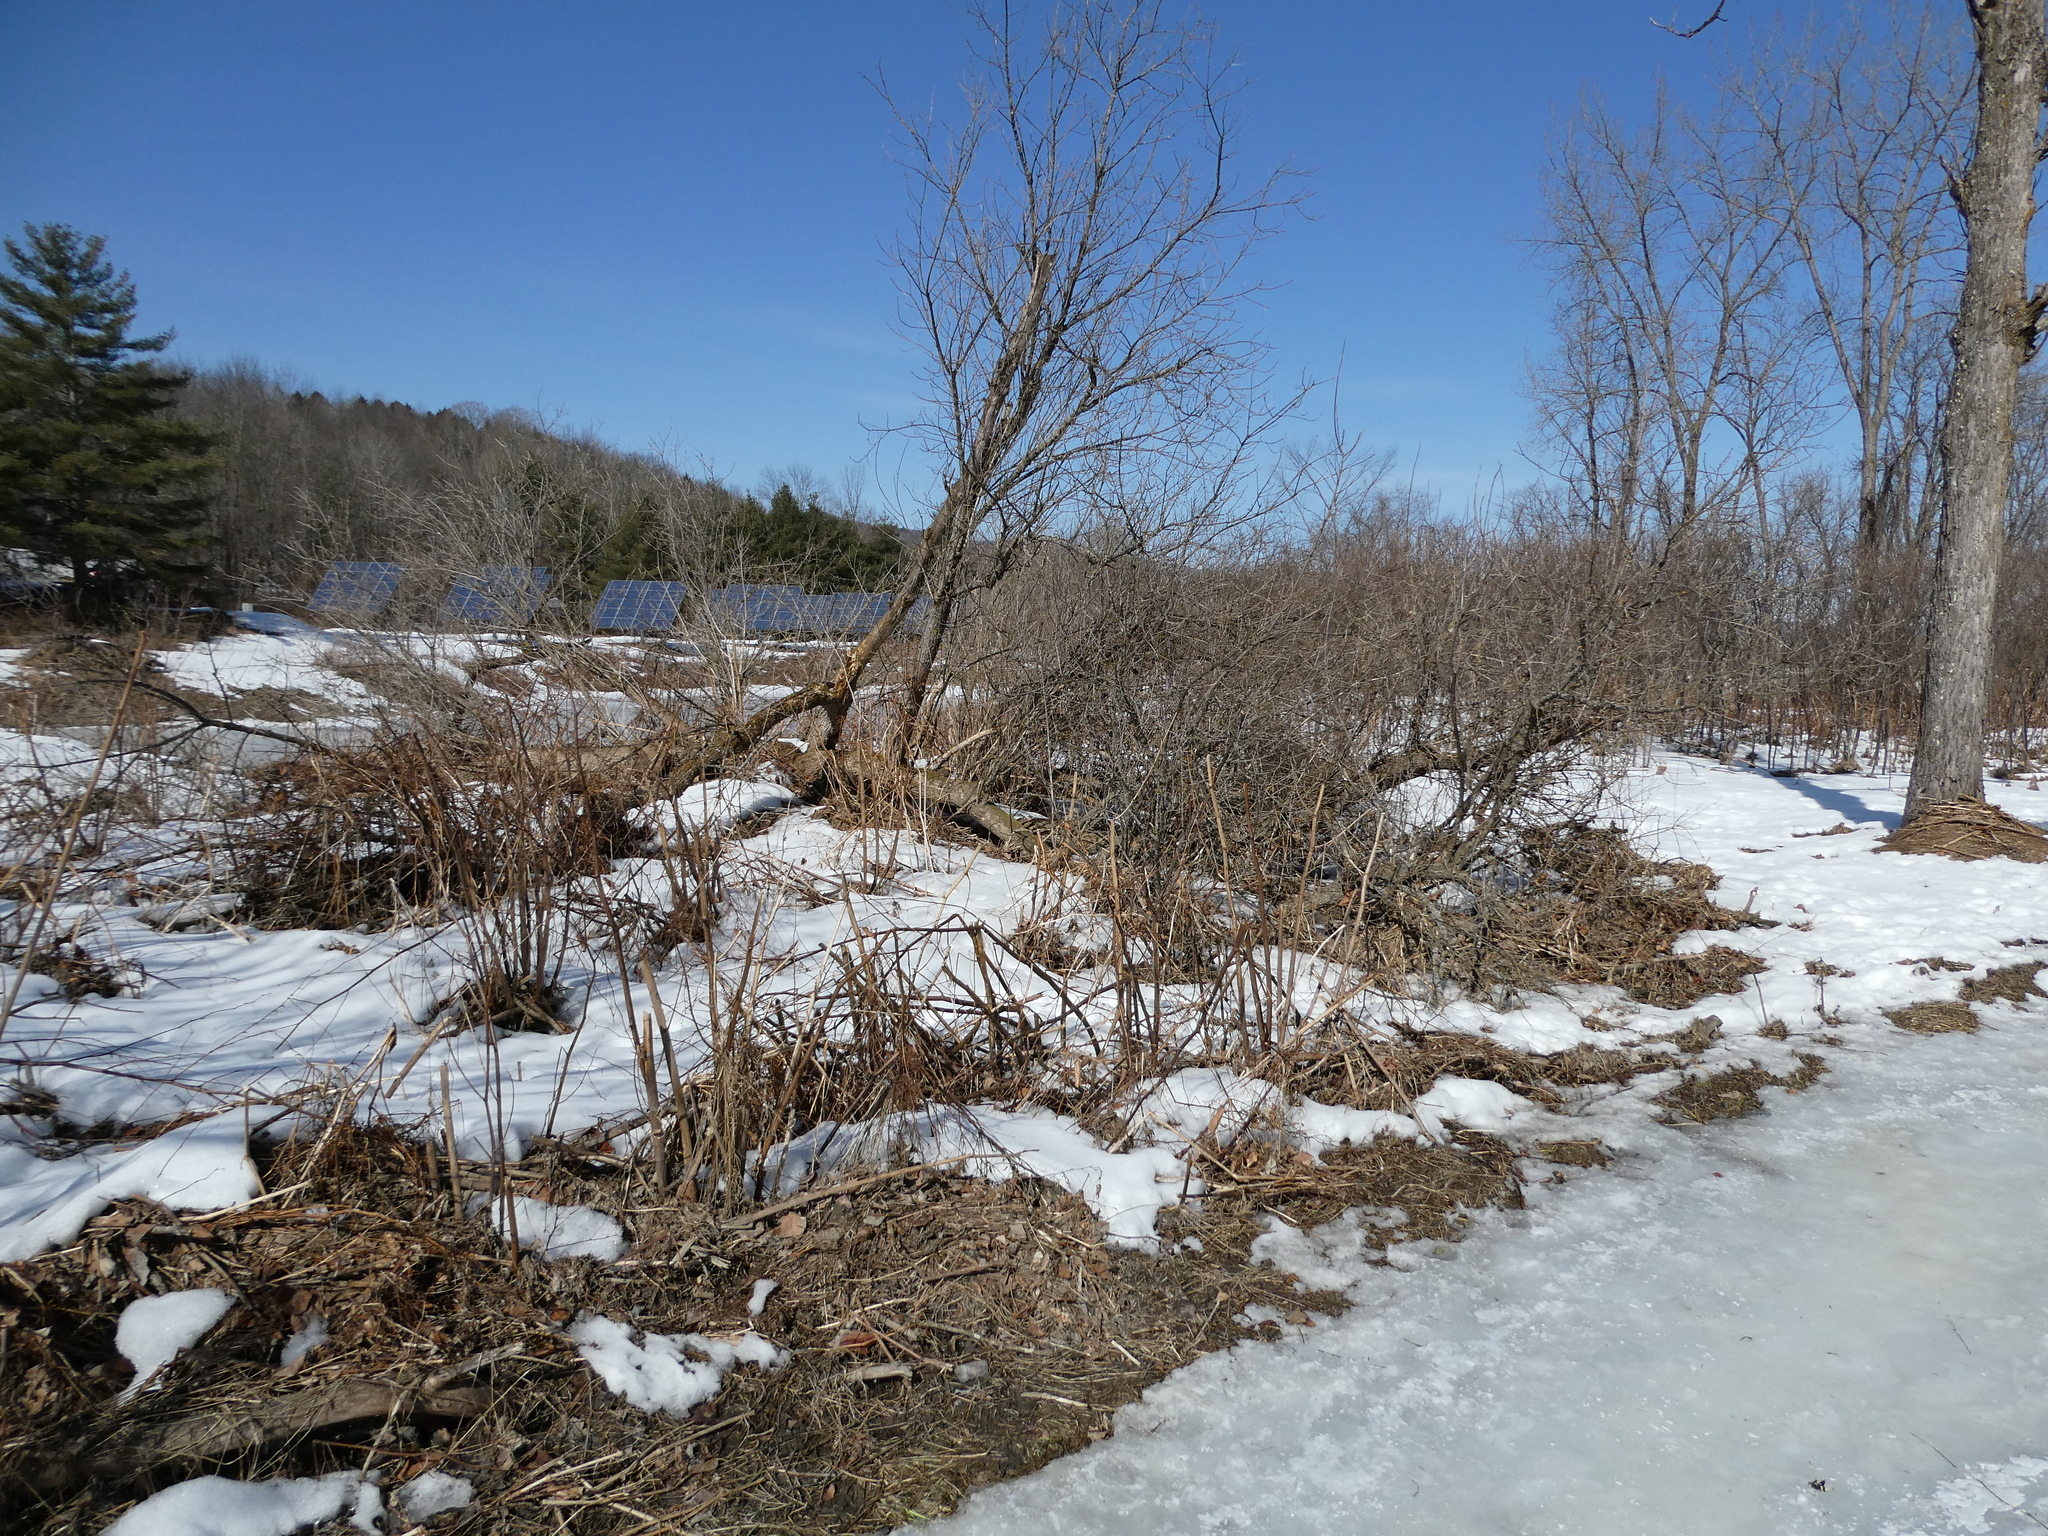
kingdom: Plantae
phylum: Tracheophyta
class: Magnoliopsida
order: Sapindales
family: Sapindaceae
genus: Acer
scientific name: Acer negundo
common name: Ashleaf maple
